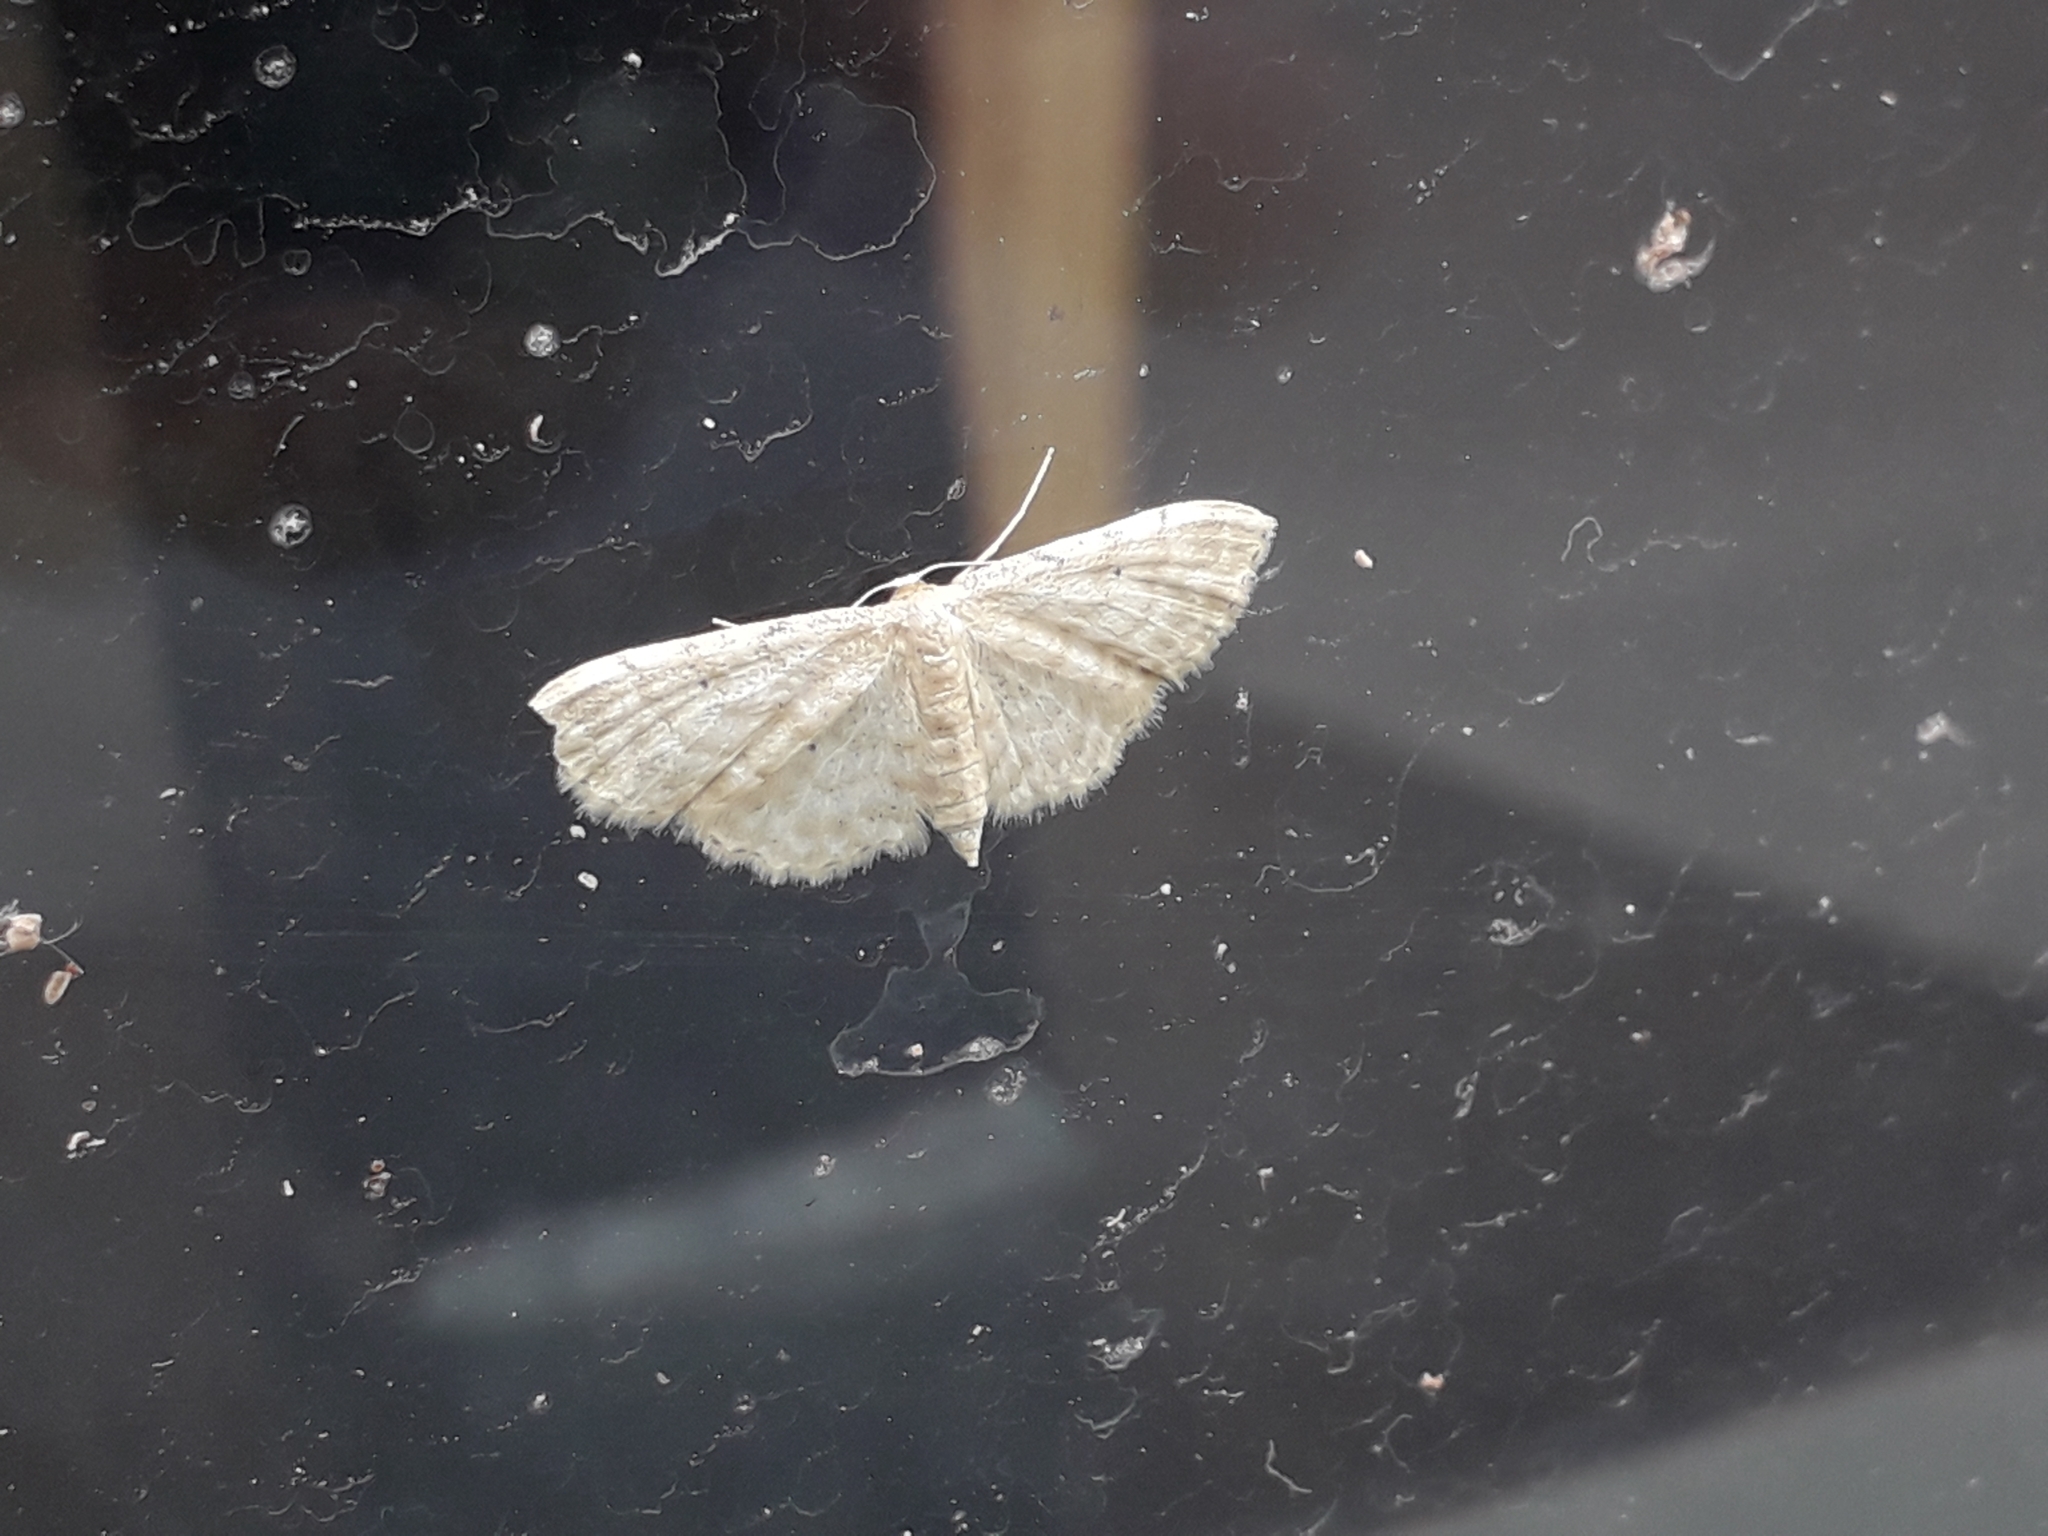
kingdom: Animalia
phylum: Arthropoda
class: Insecta
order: Lepidoptera
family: Geometridae
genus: Idaea
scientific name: Idaea fuscovenosa
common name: Dwarf cream wave
